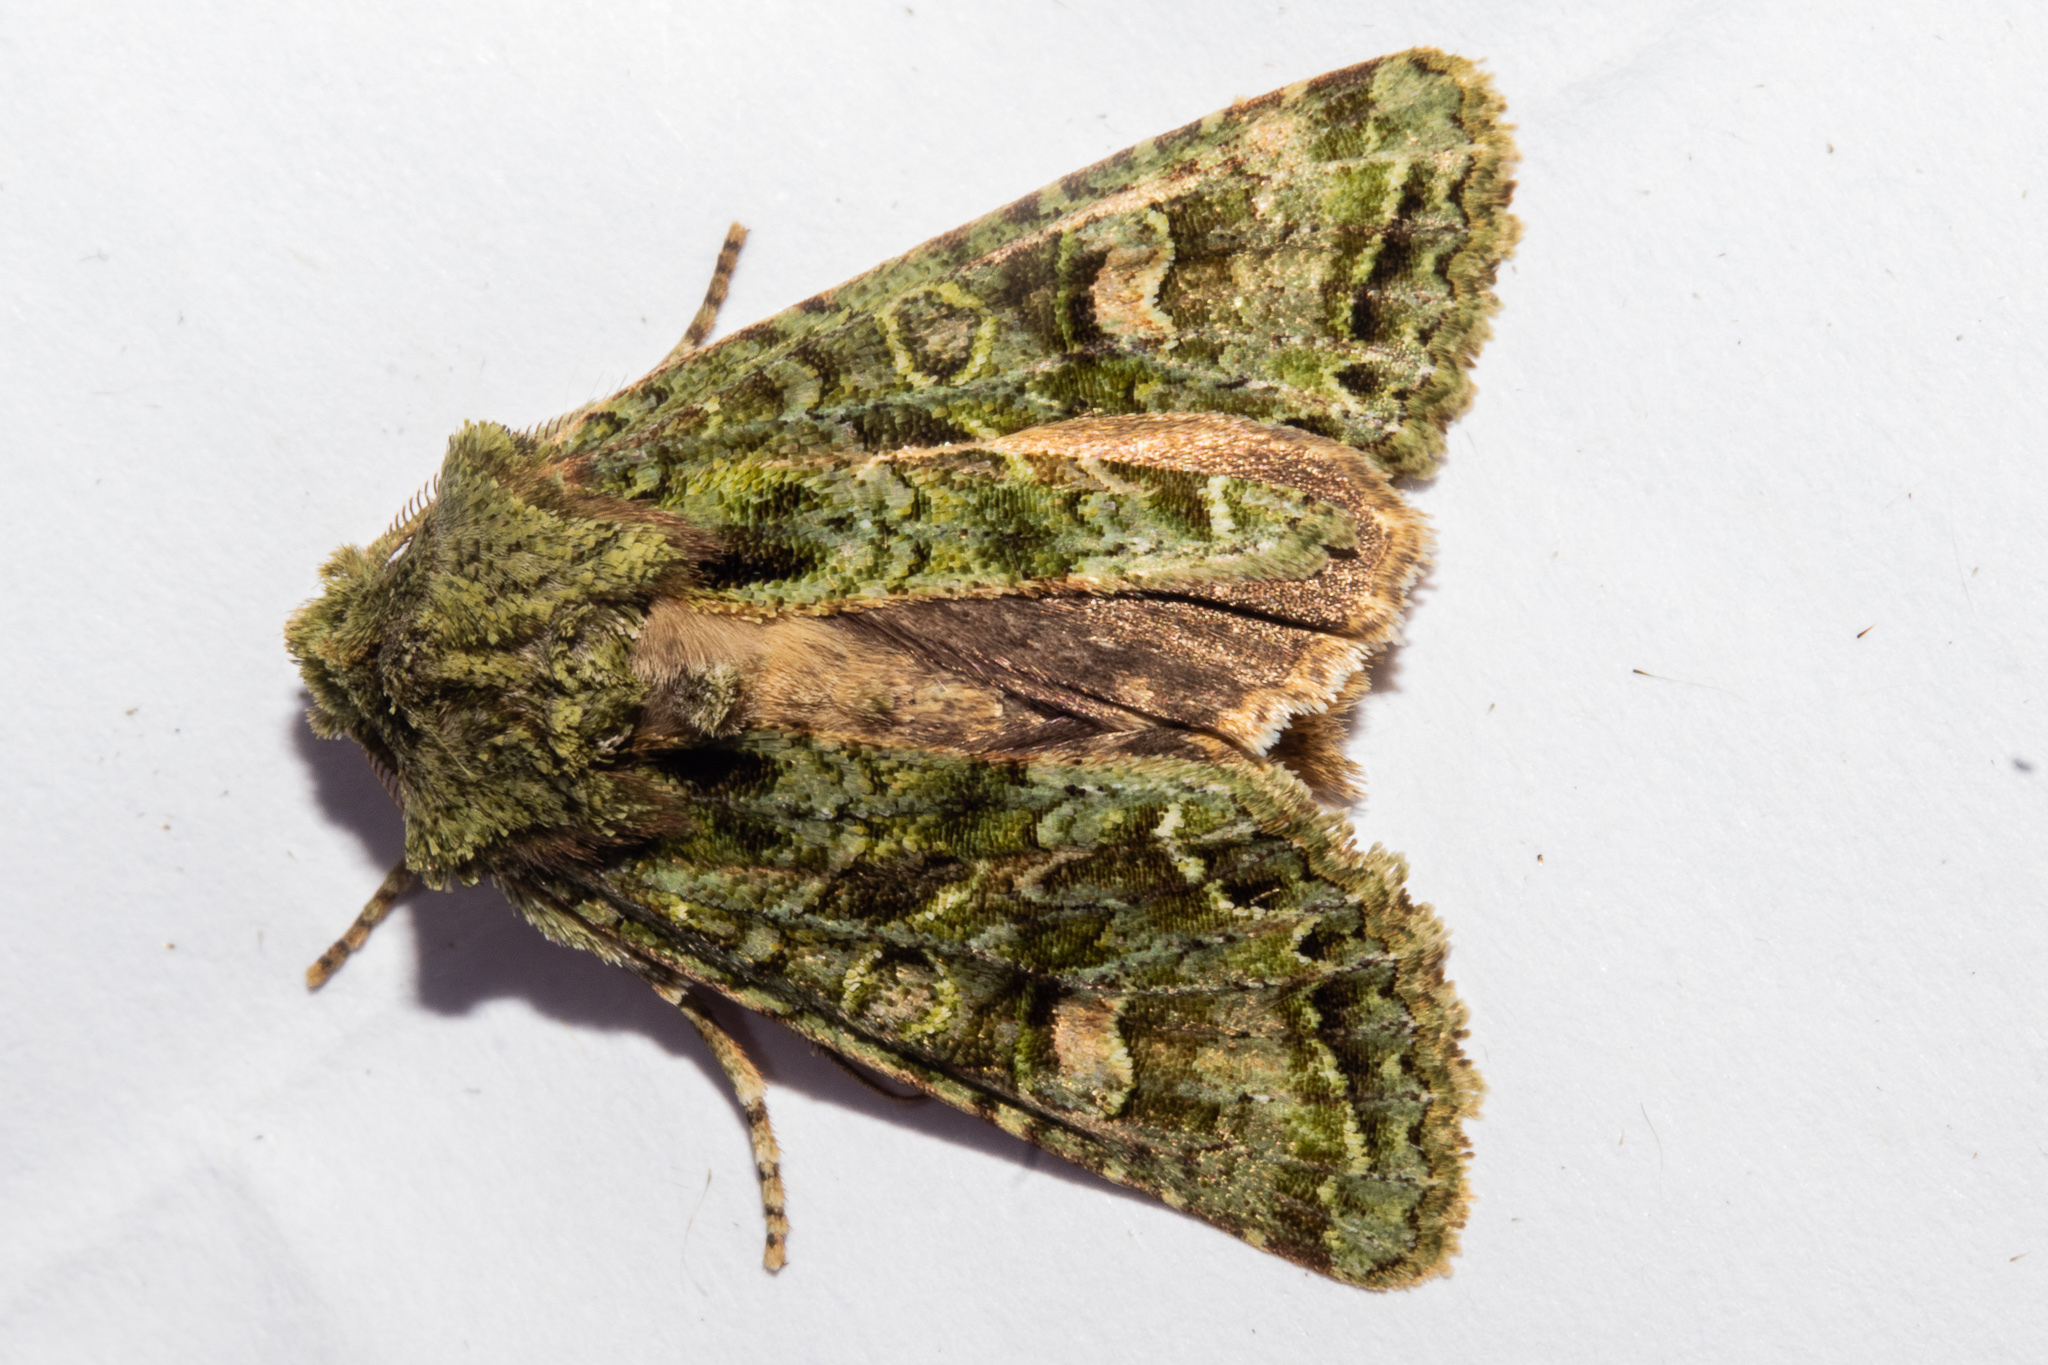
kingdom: Animalia
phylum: Arthropoda
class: Insecta
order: Lepidoptera
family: Noctuidae
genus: Ichneutica
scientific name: Ichneutica
